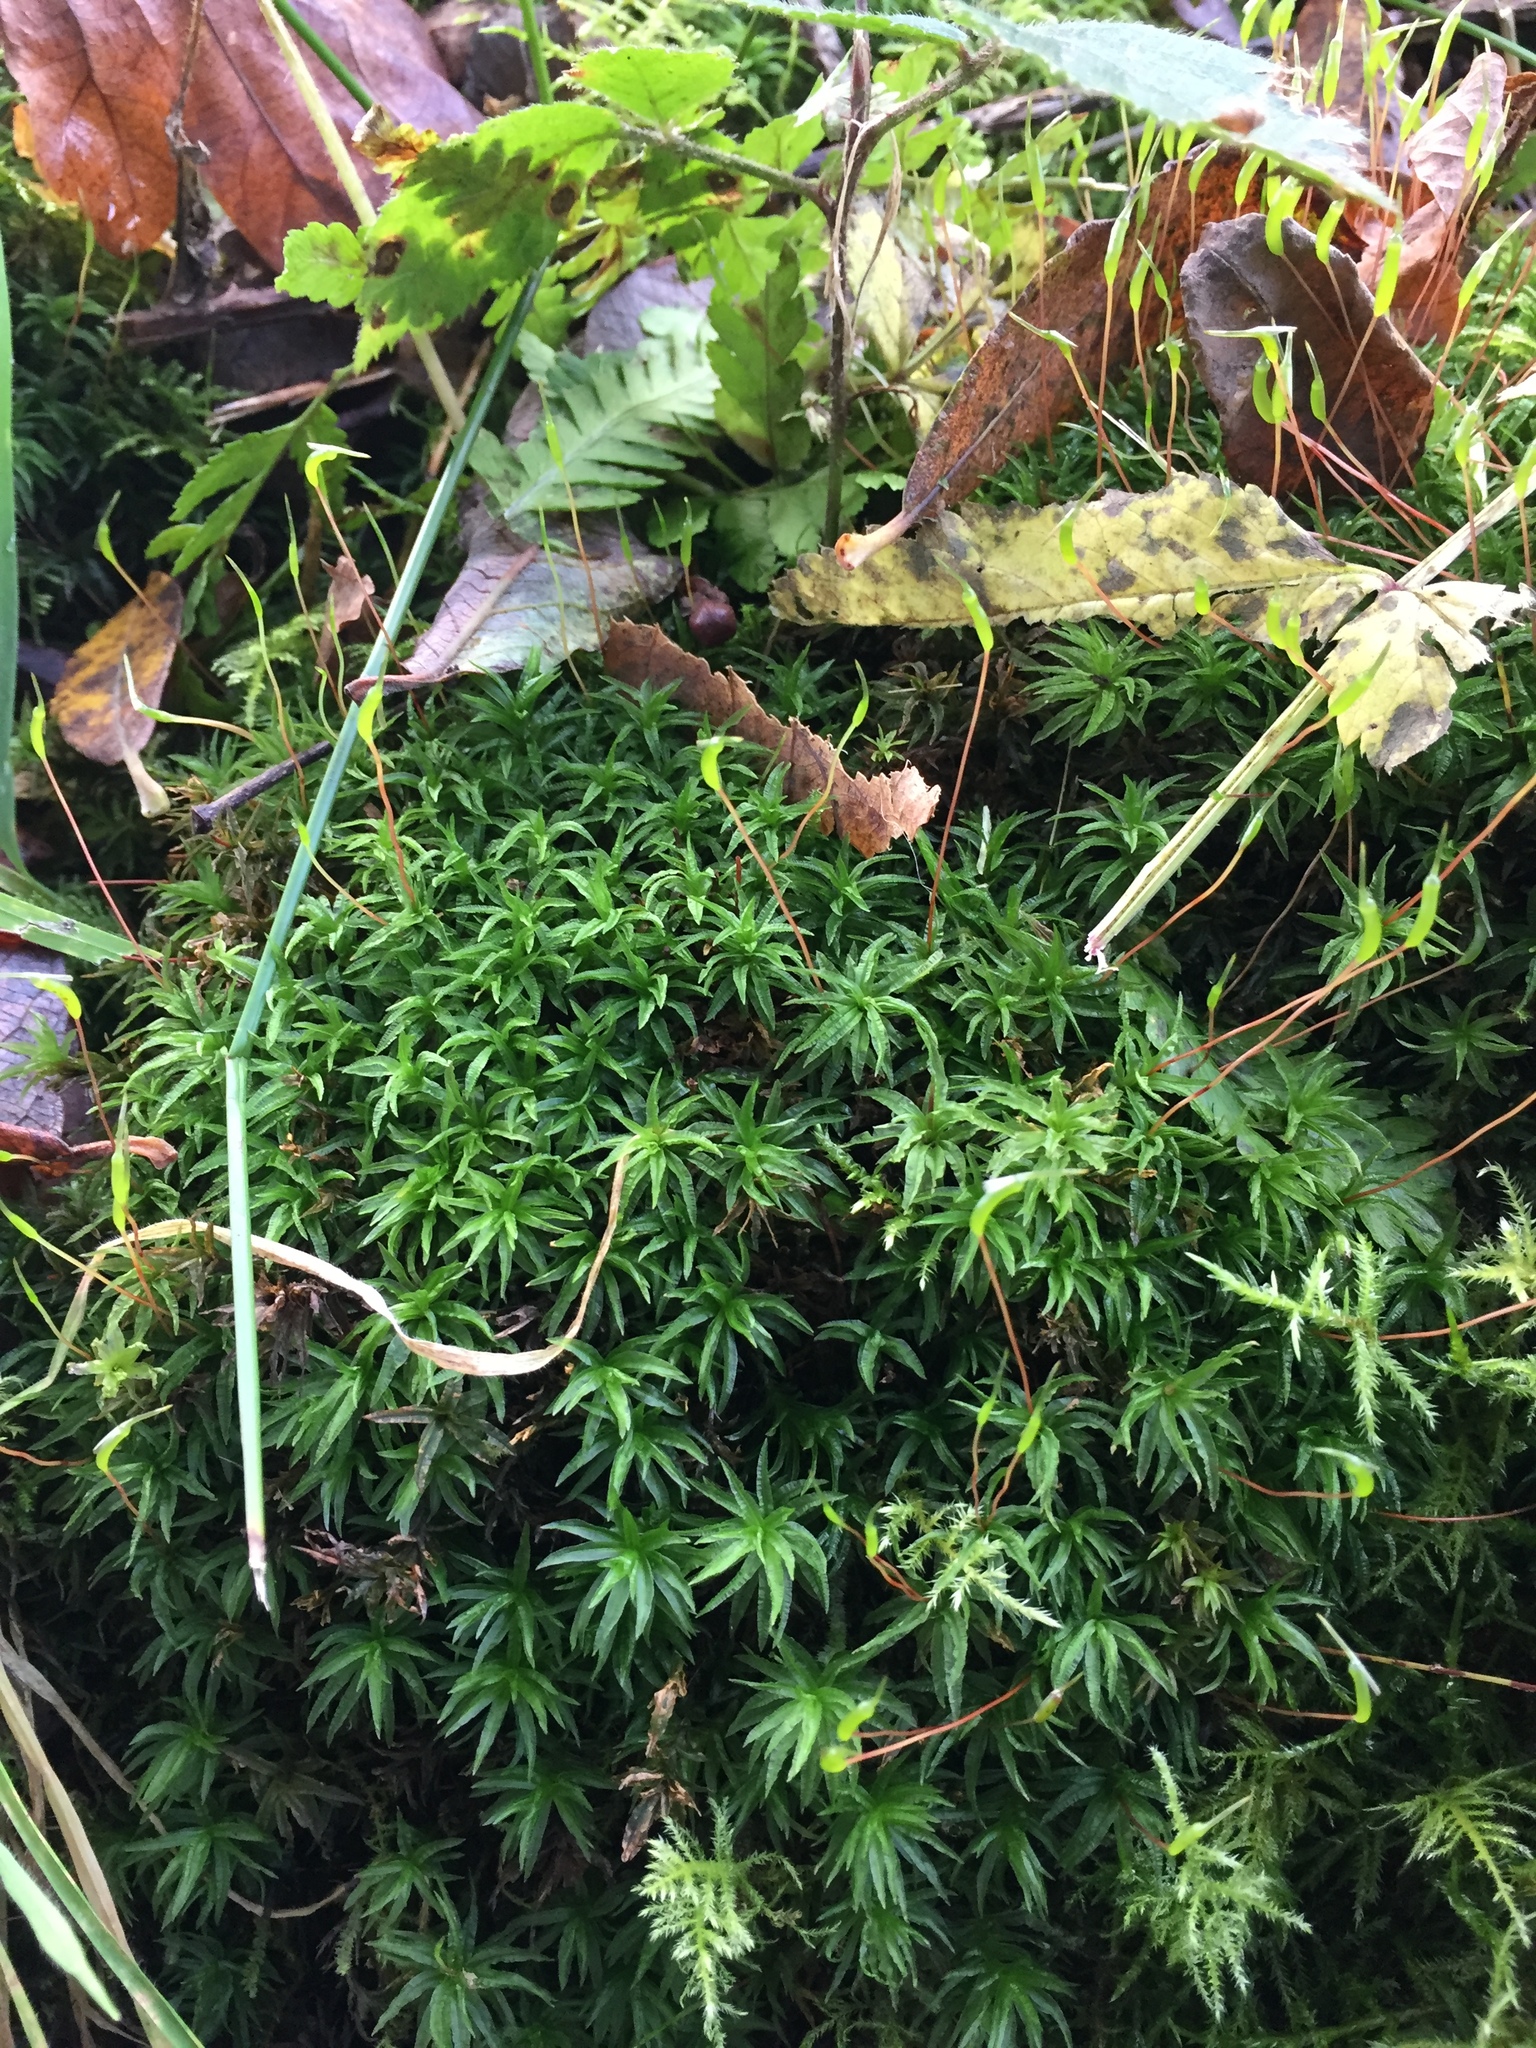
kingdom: Plantae
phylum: Bryophyta
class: Polytrichopsida
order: Polytrichales
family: Polytrichaceae
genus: Atrichum
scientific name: Atrichum undulatum
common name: Common smoothcap
